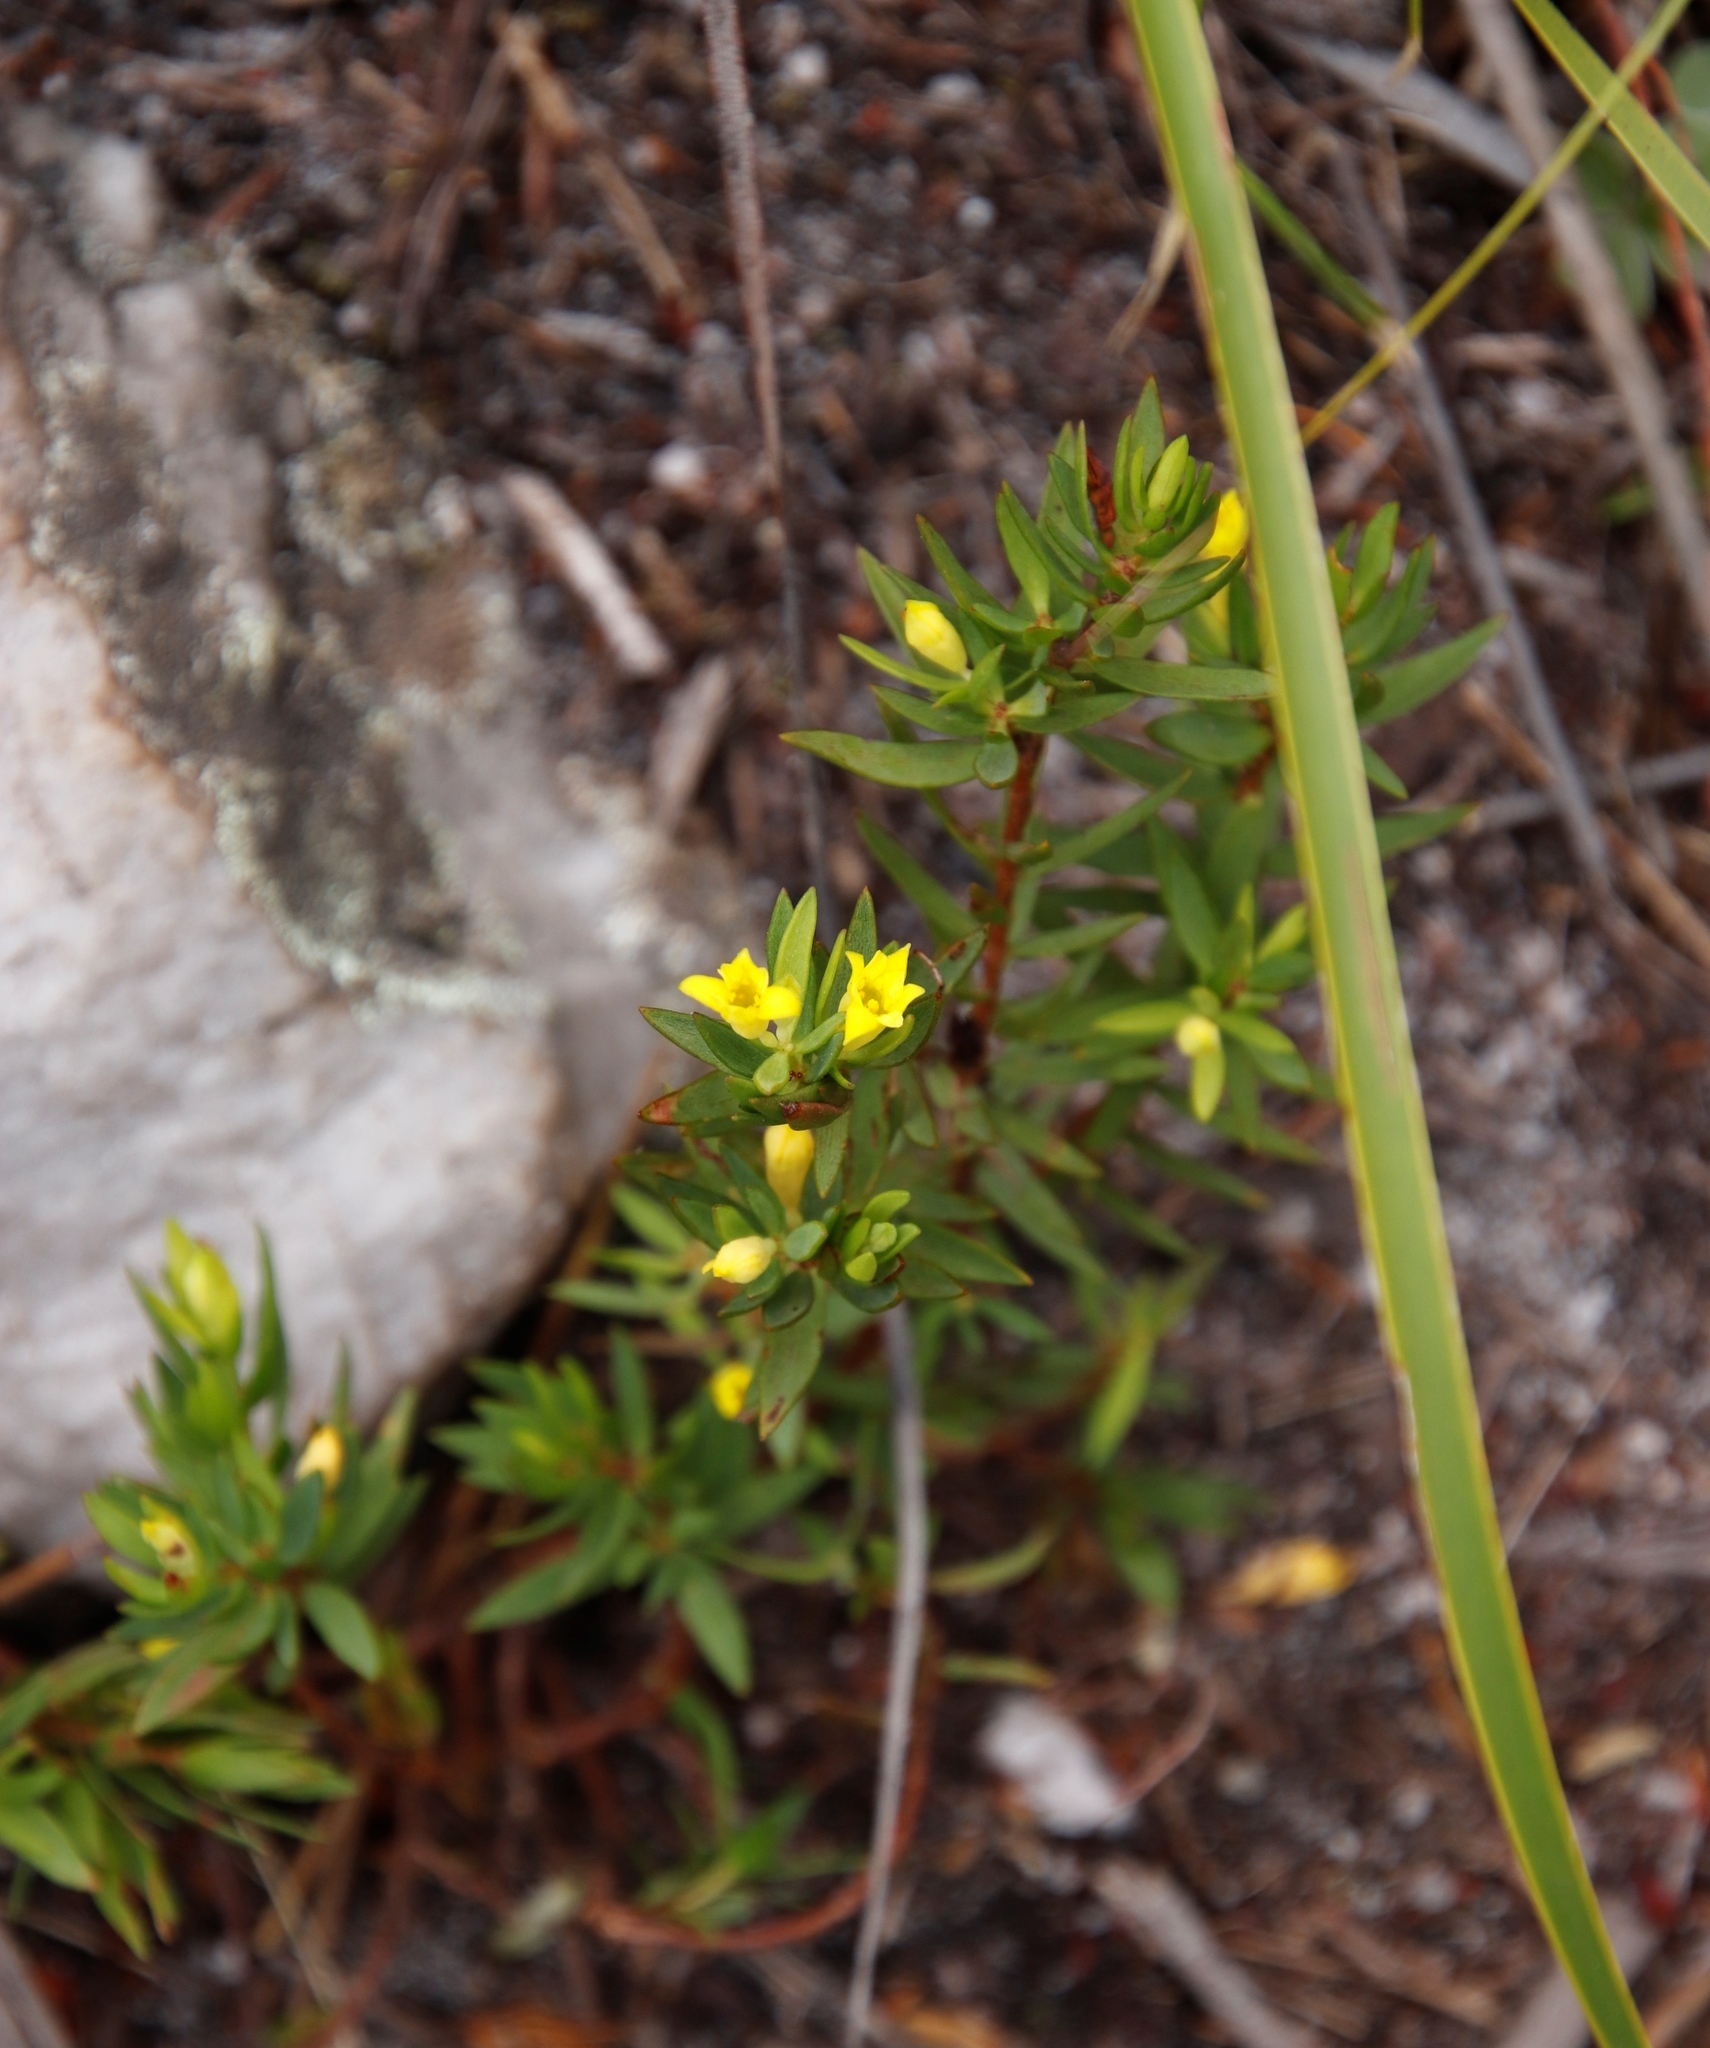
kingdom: Plantae
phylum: Tracheophyta
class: Magnoliopsida
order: Malvales
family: Thymelaeaceae
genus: Gnidia
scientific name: Gnidia juniperifolia
